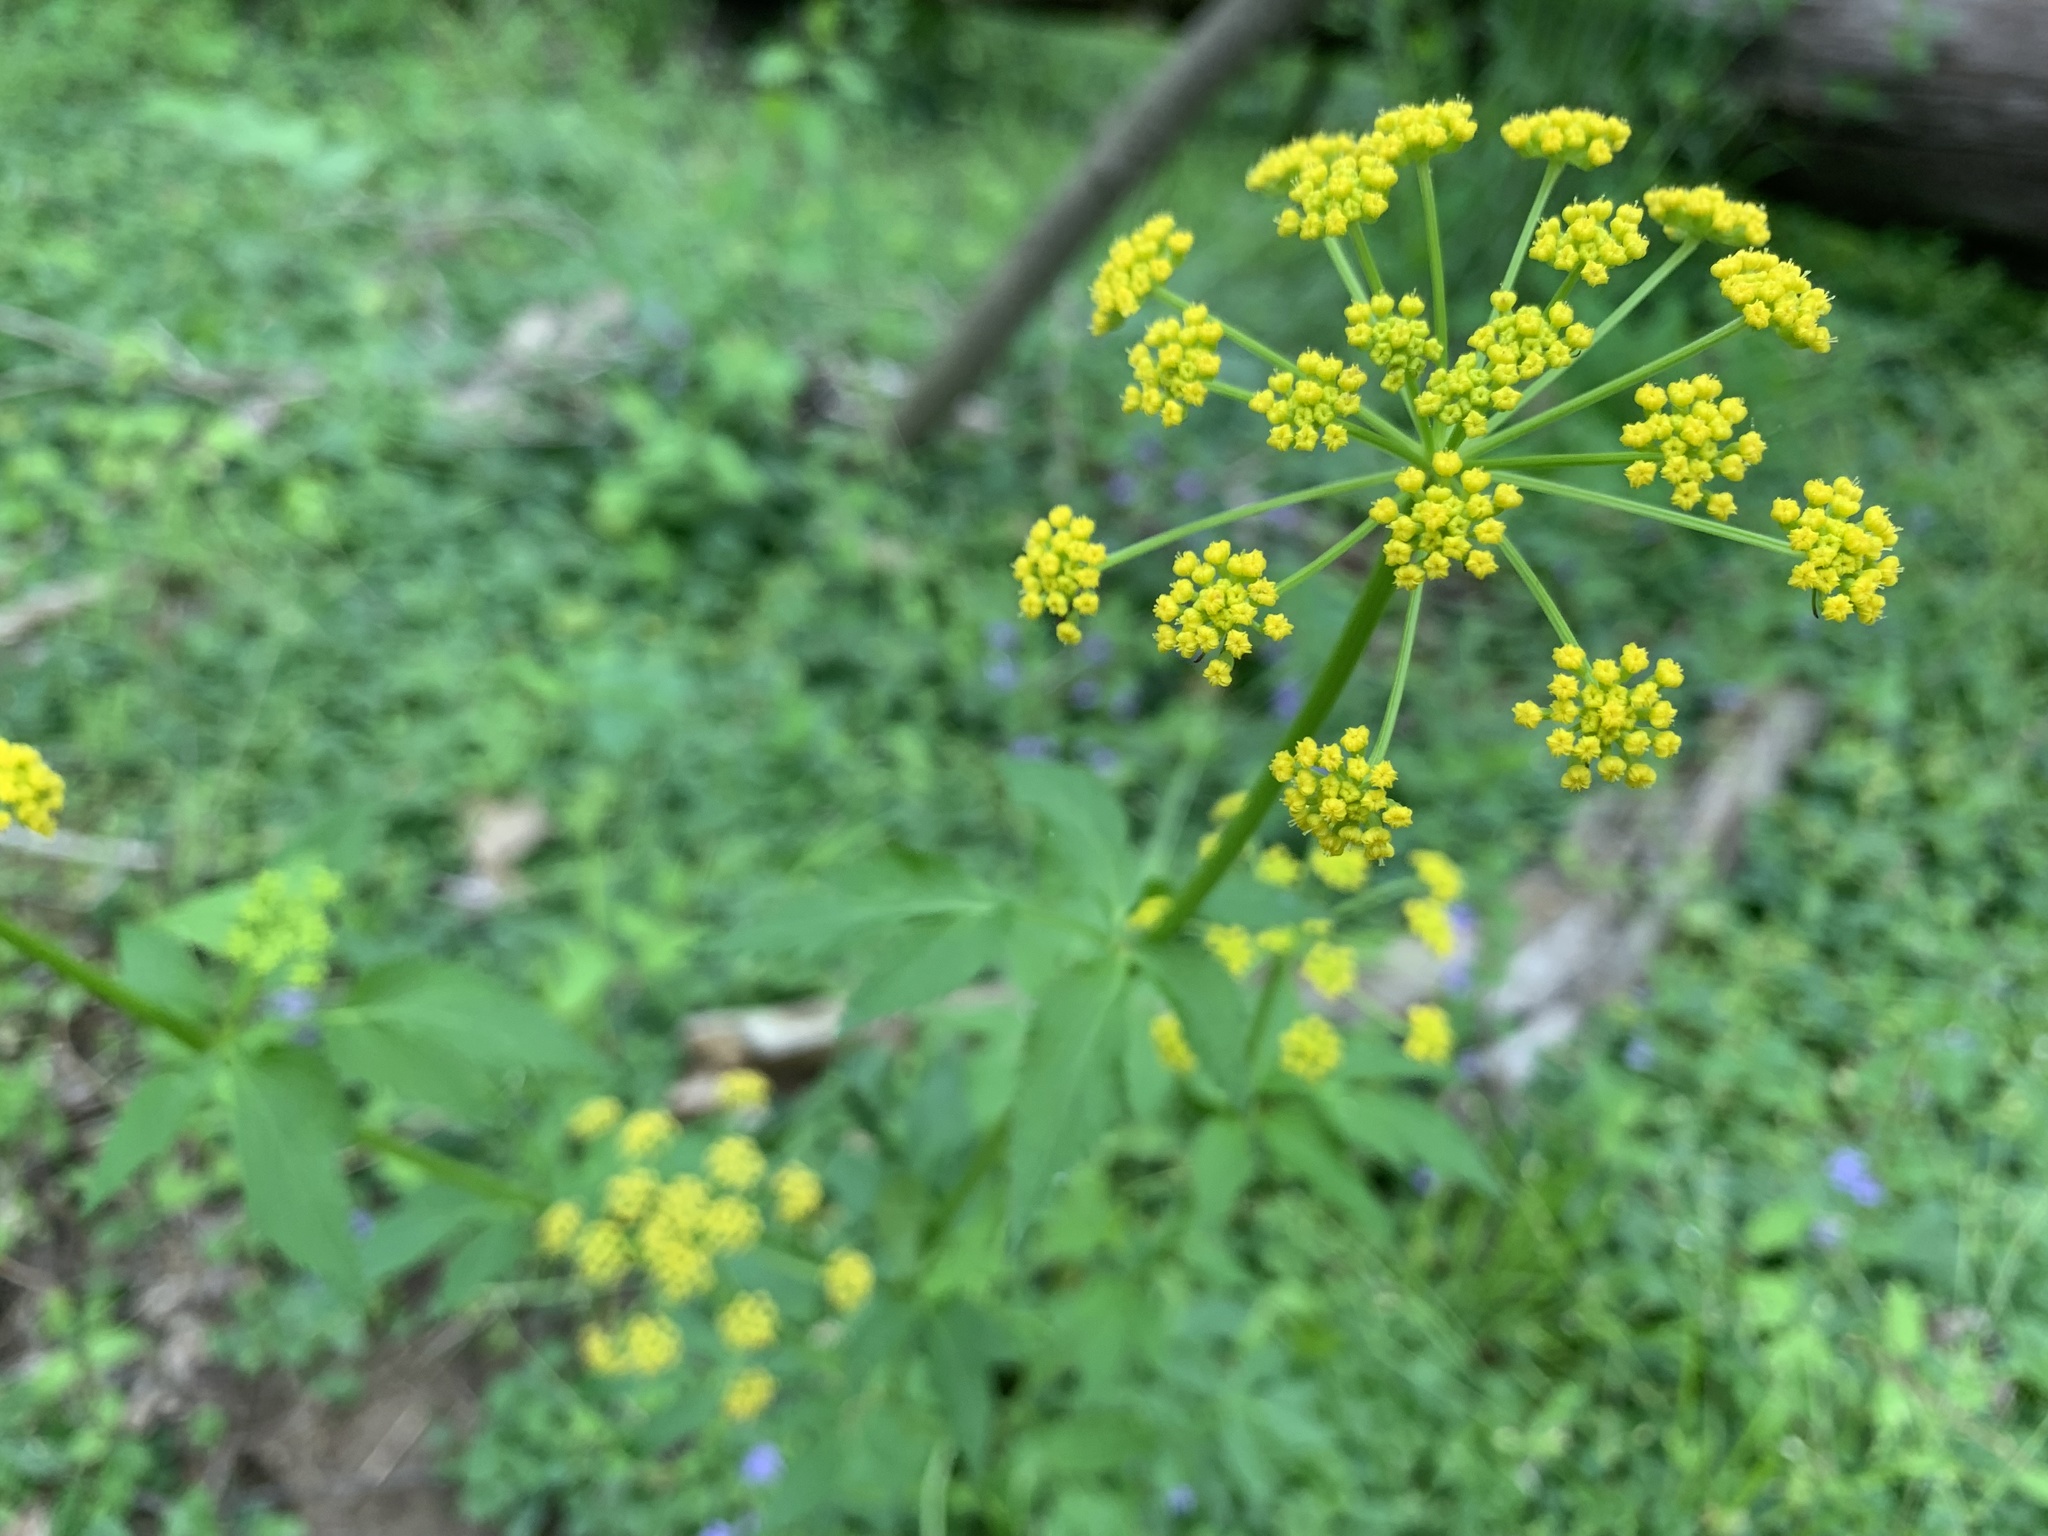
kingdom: Plantae
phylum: Tracheophyta
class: Magnoliopsida
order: Apiales
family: Apiaceae
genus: Zizia
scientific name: Zizia aurea
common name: Golden alexanders
